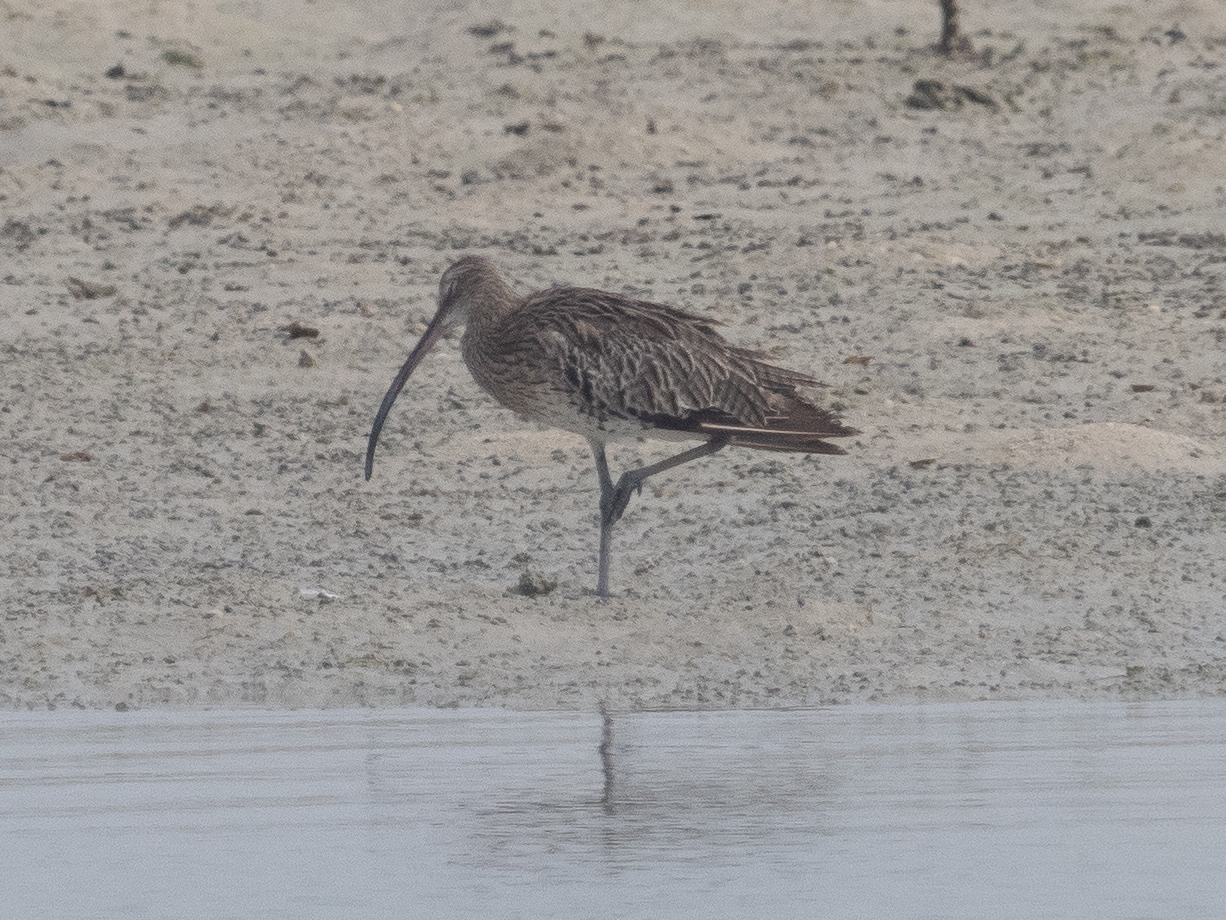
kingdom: Animalia
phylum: Chordata
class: Aves
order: Charadriiformes
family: Scolopacidae
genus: Numenius
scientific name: Numenius arquata
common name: Eurasian curlew
